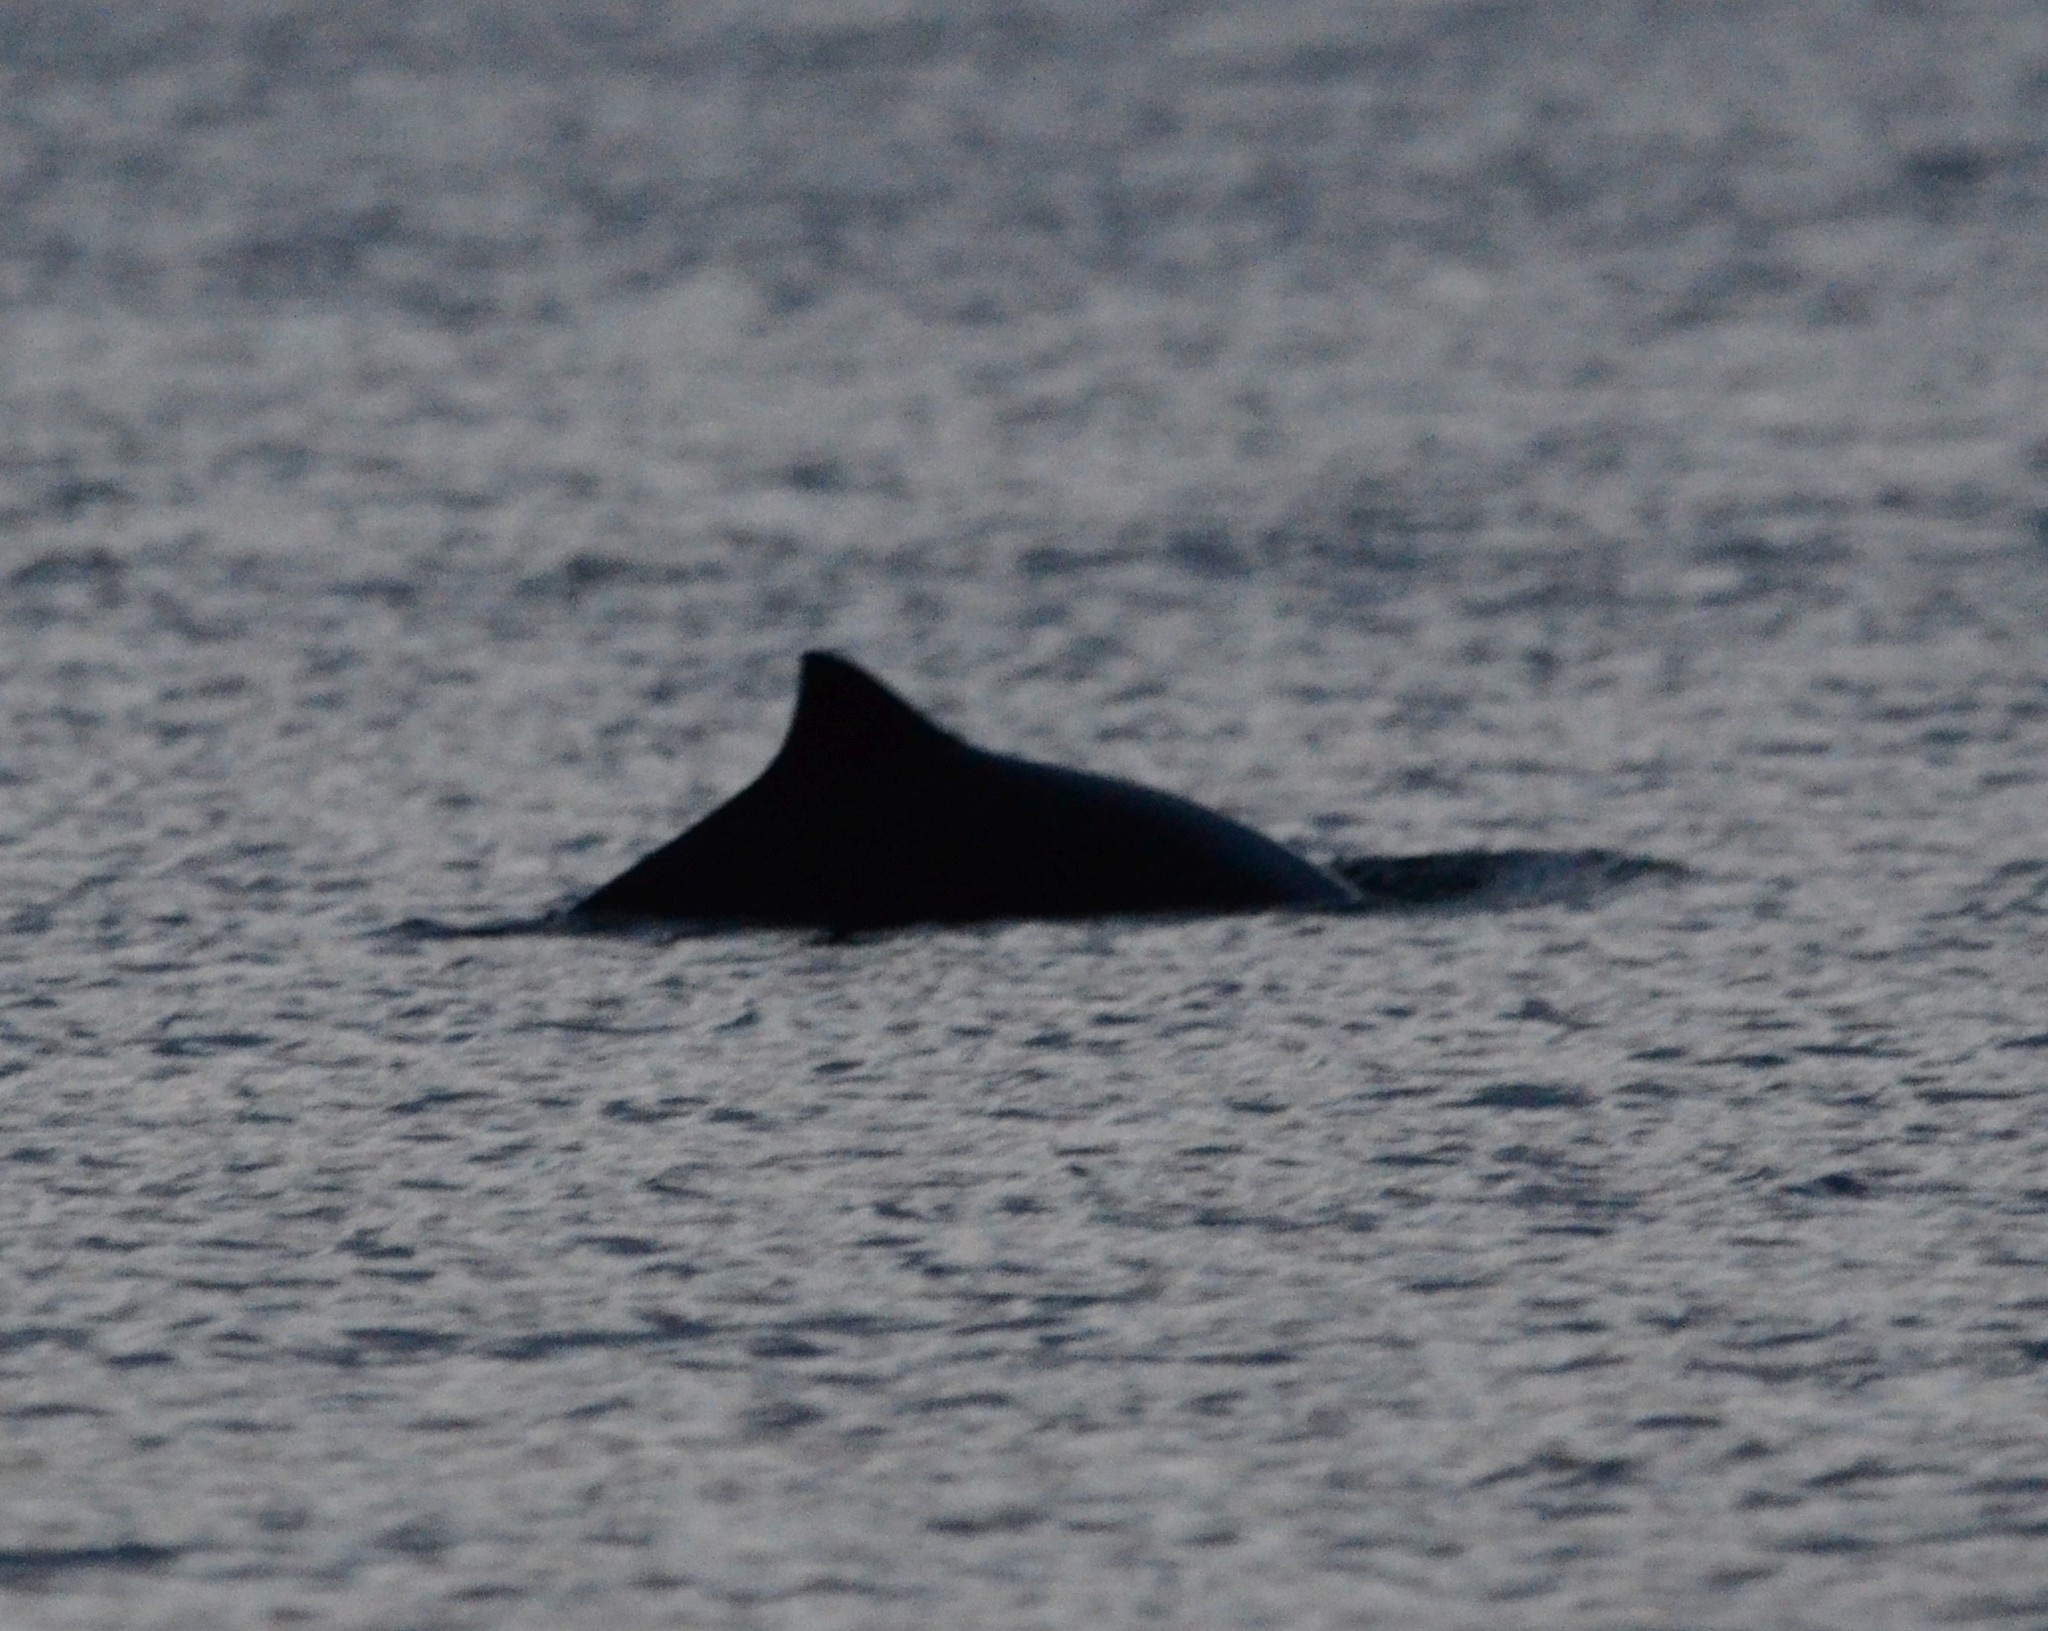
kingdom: Animalia
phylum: Chordata
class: Mammalia
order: Cetacea
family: Phocoenidae
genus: Phocoena
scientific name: Phocoena phocoena
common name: Harbor porpoise
